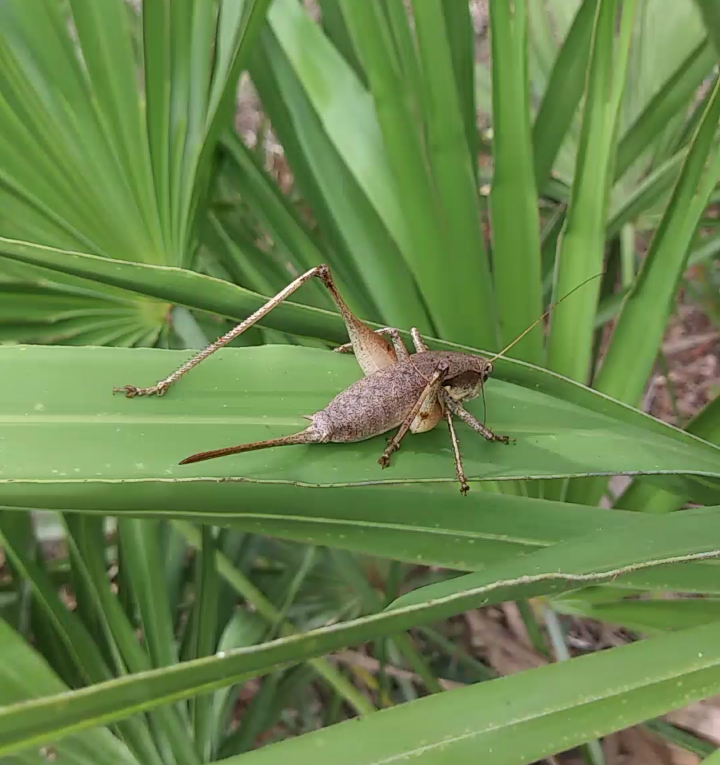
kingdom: Animalia
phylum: Arthropoda
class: Insecta
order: Orthoptera
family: Tettigoniidae
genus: Atlanticus
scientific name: Atlanticus gibbosus
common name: Robust shield-bearer
